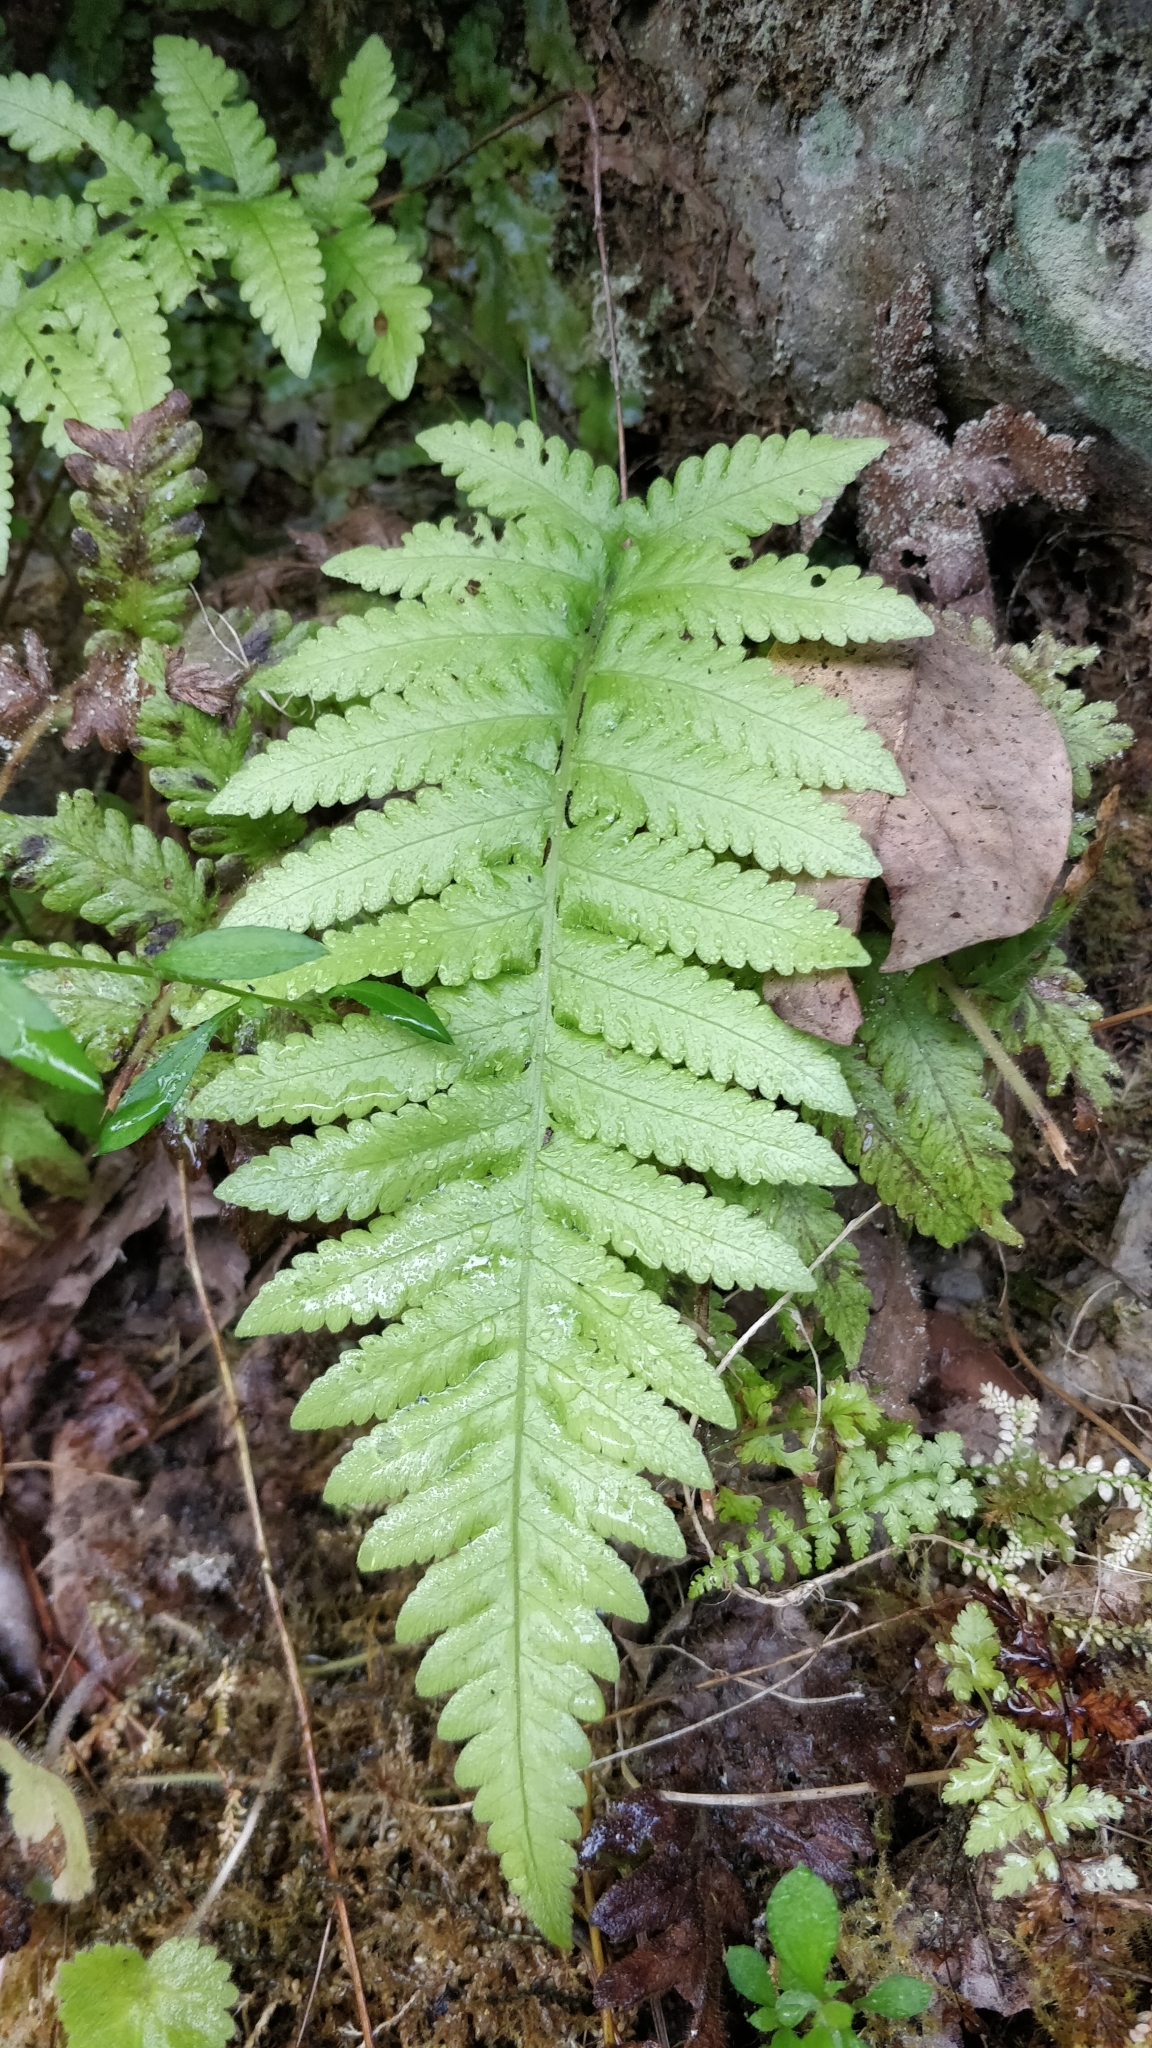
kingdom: Plantae
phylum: Tracheophyta
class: Polypodiopsida
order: Polypodiales
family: Thelypteridaceae
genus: Leptogramma
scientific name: Leptogramma pozoi
